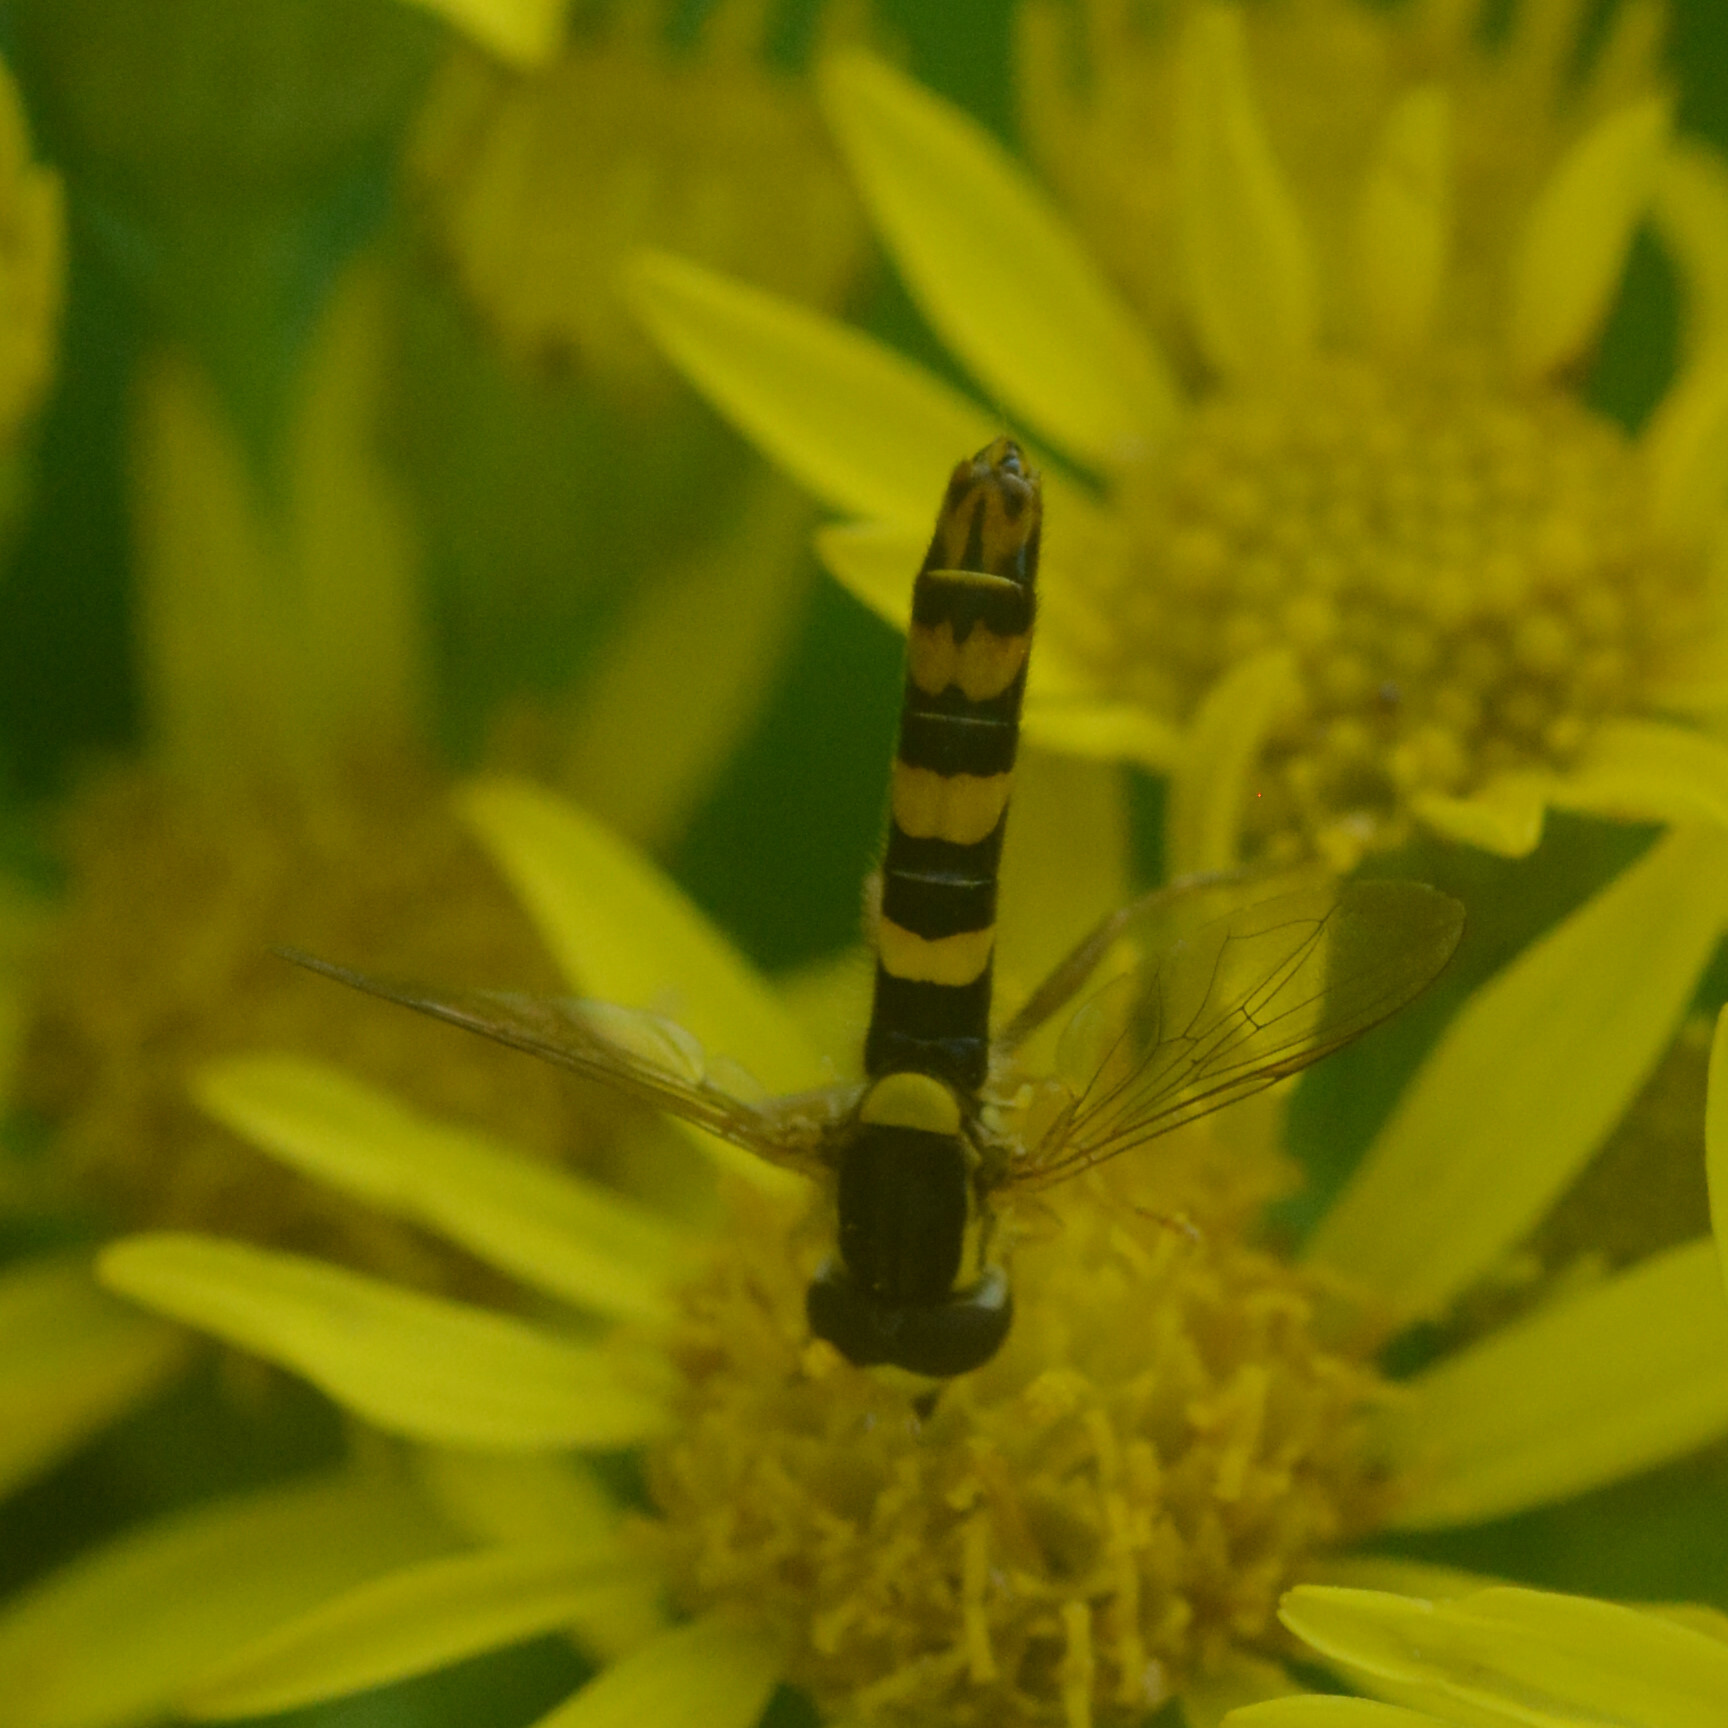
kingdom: Animalia
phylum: Arthropoda
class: Insecta
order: Diptera
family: Syrphidae
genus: Sphaerophoria
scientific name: Sphaerophoria scripta
